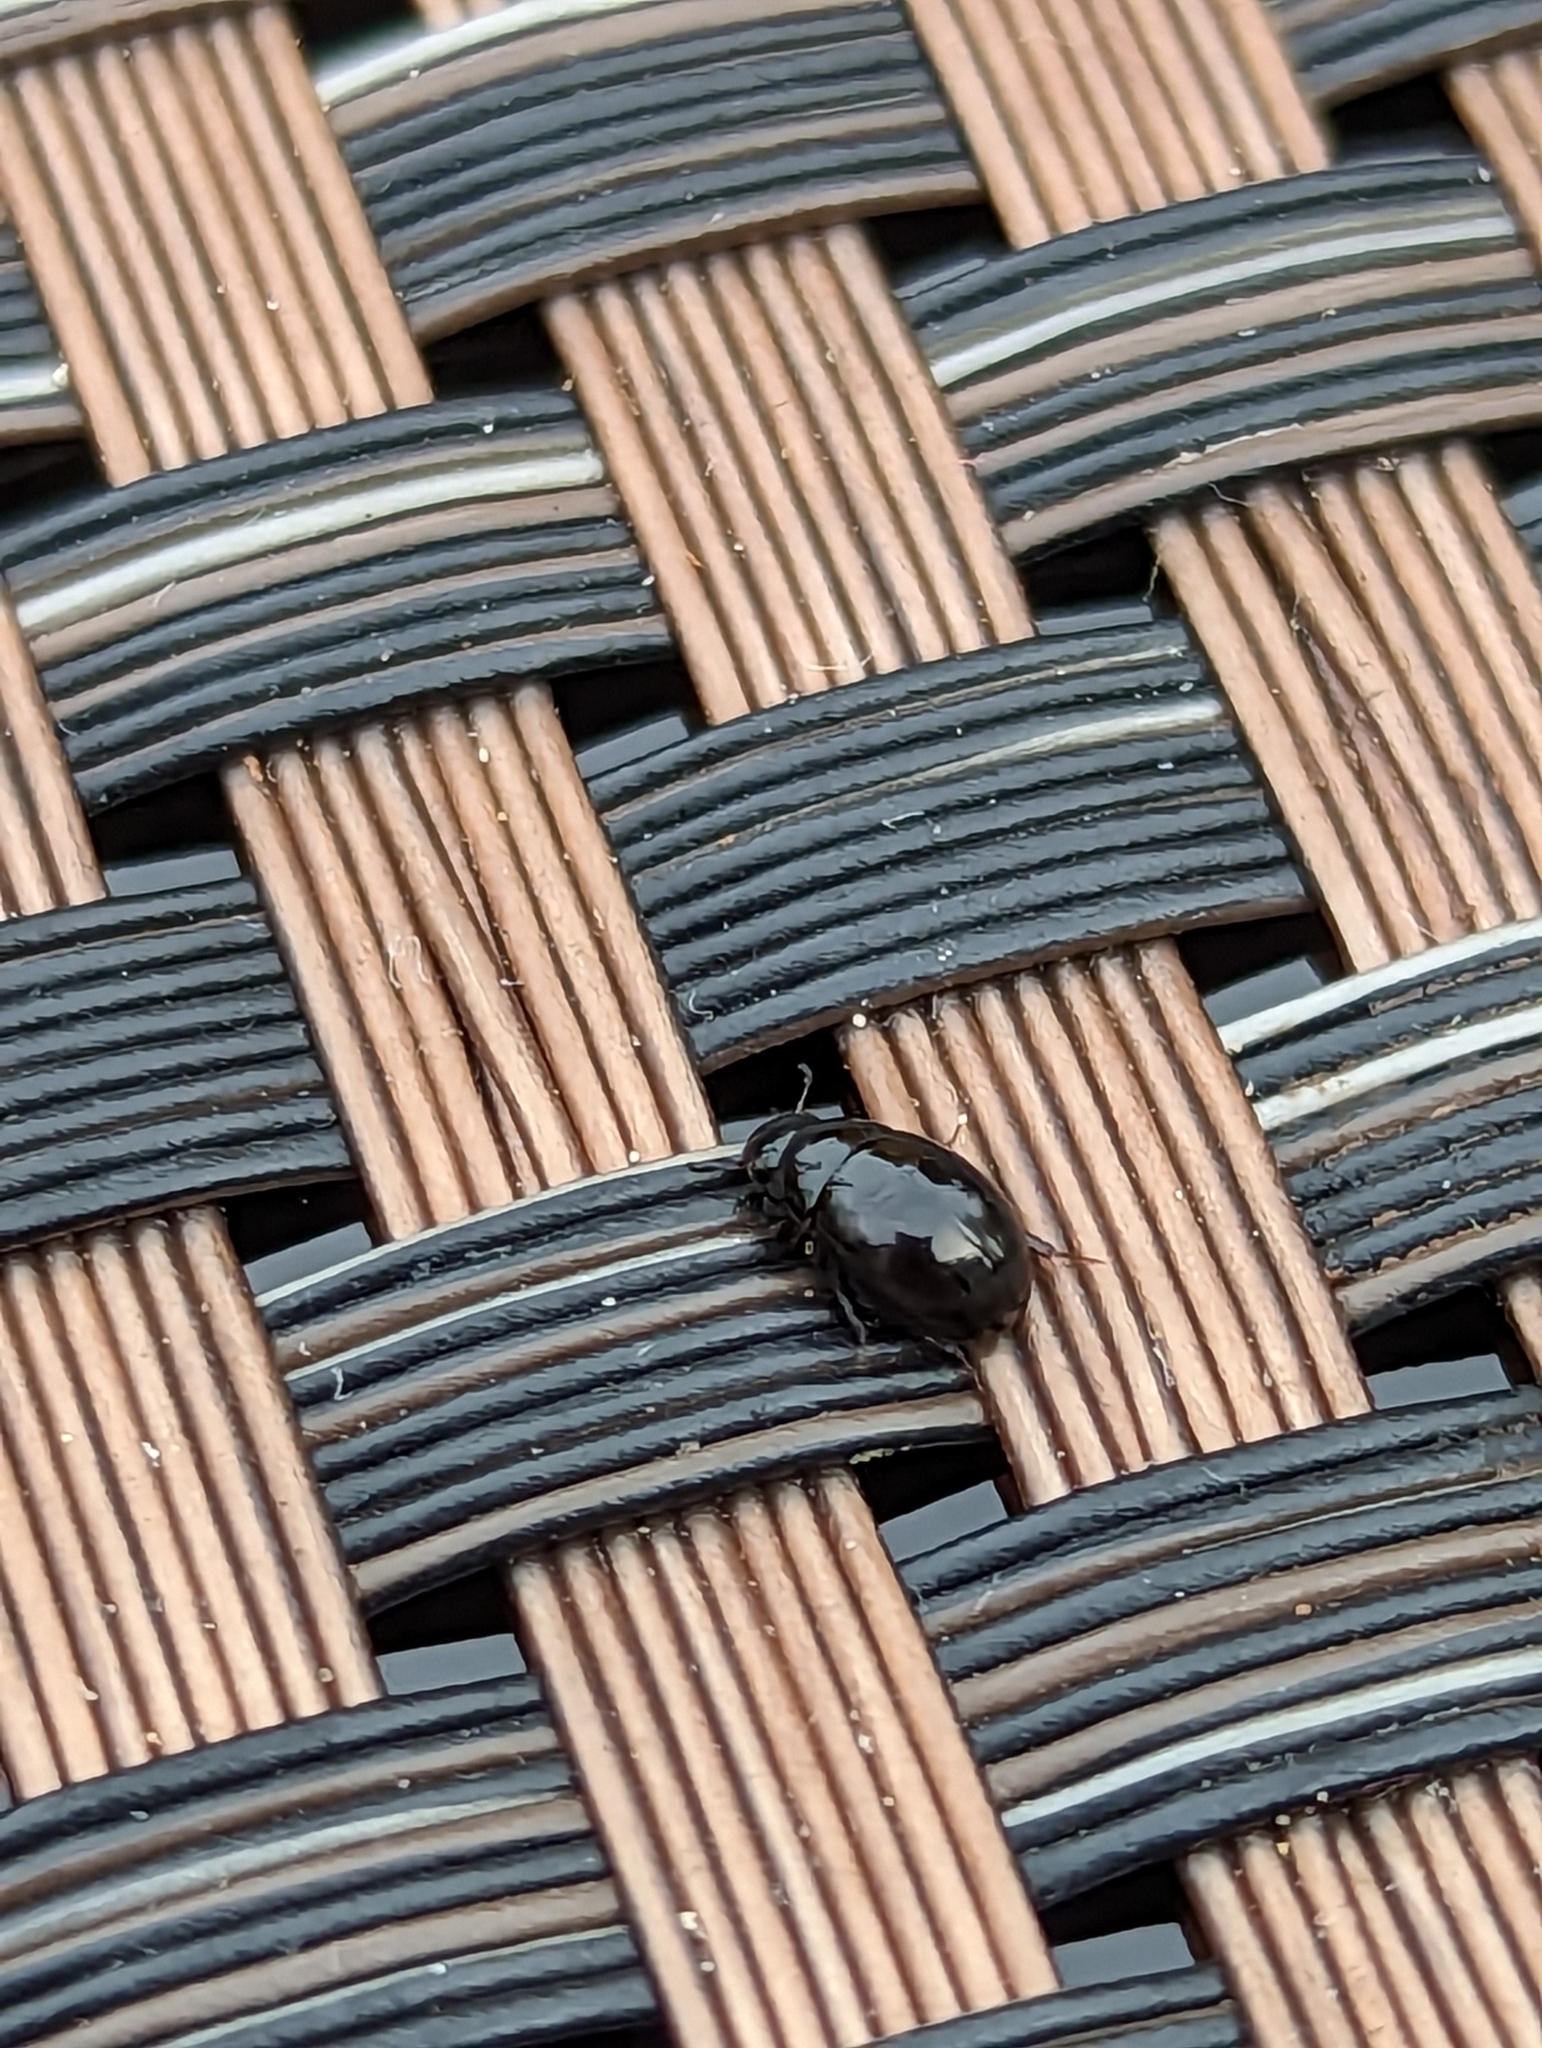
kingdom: Animalia
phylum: Arthropoda
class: Insecta
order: Coleoptera
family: Hydrophilidae
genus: Coelostoma
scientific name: Coelostoma orbiculare
